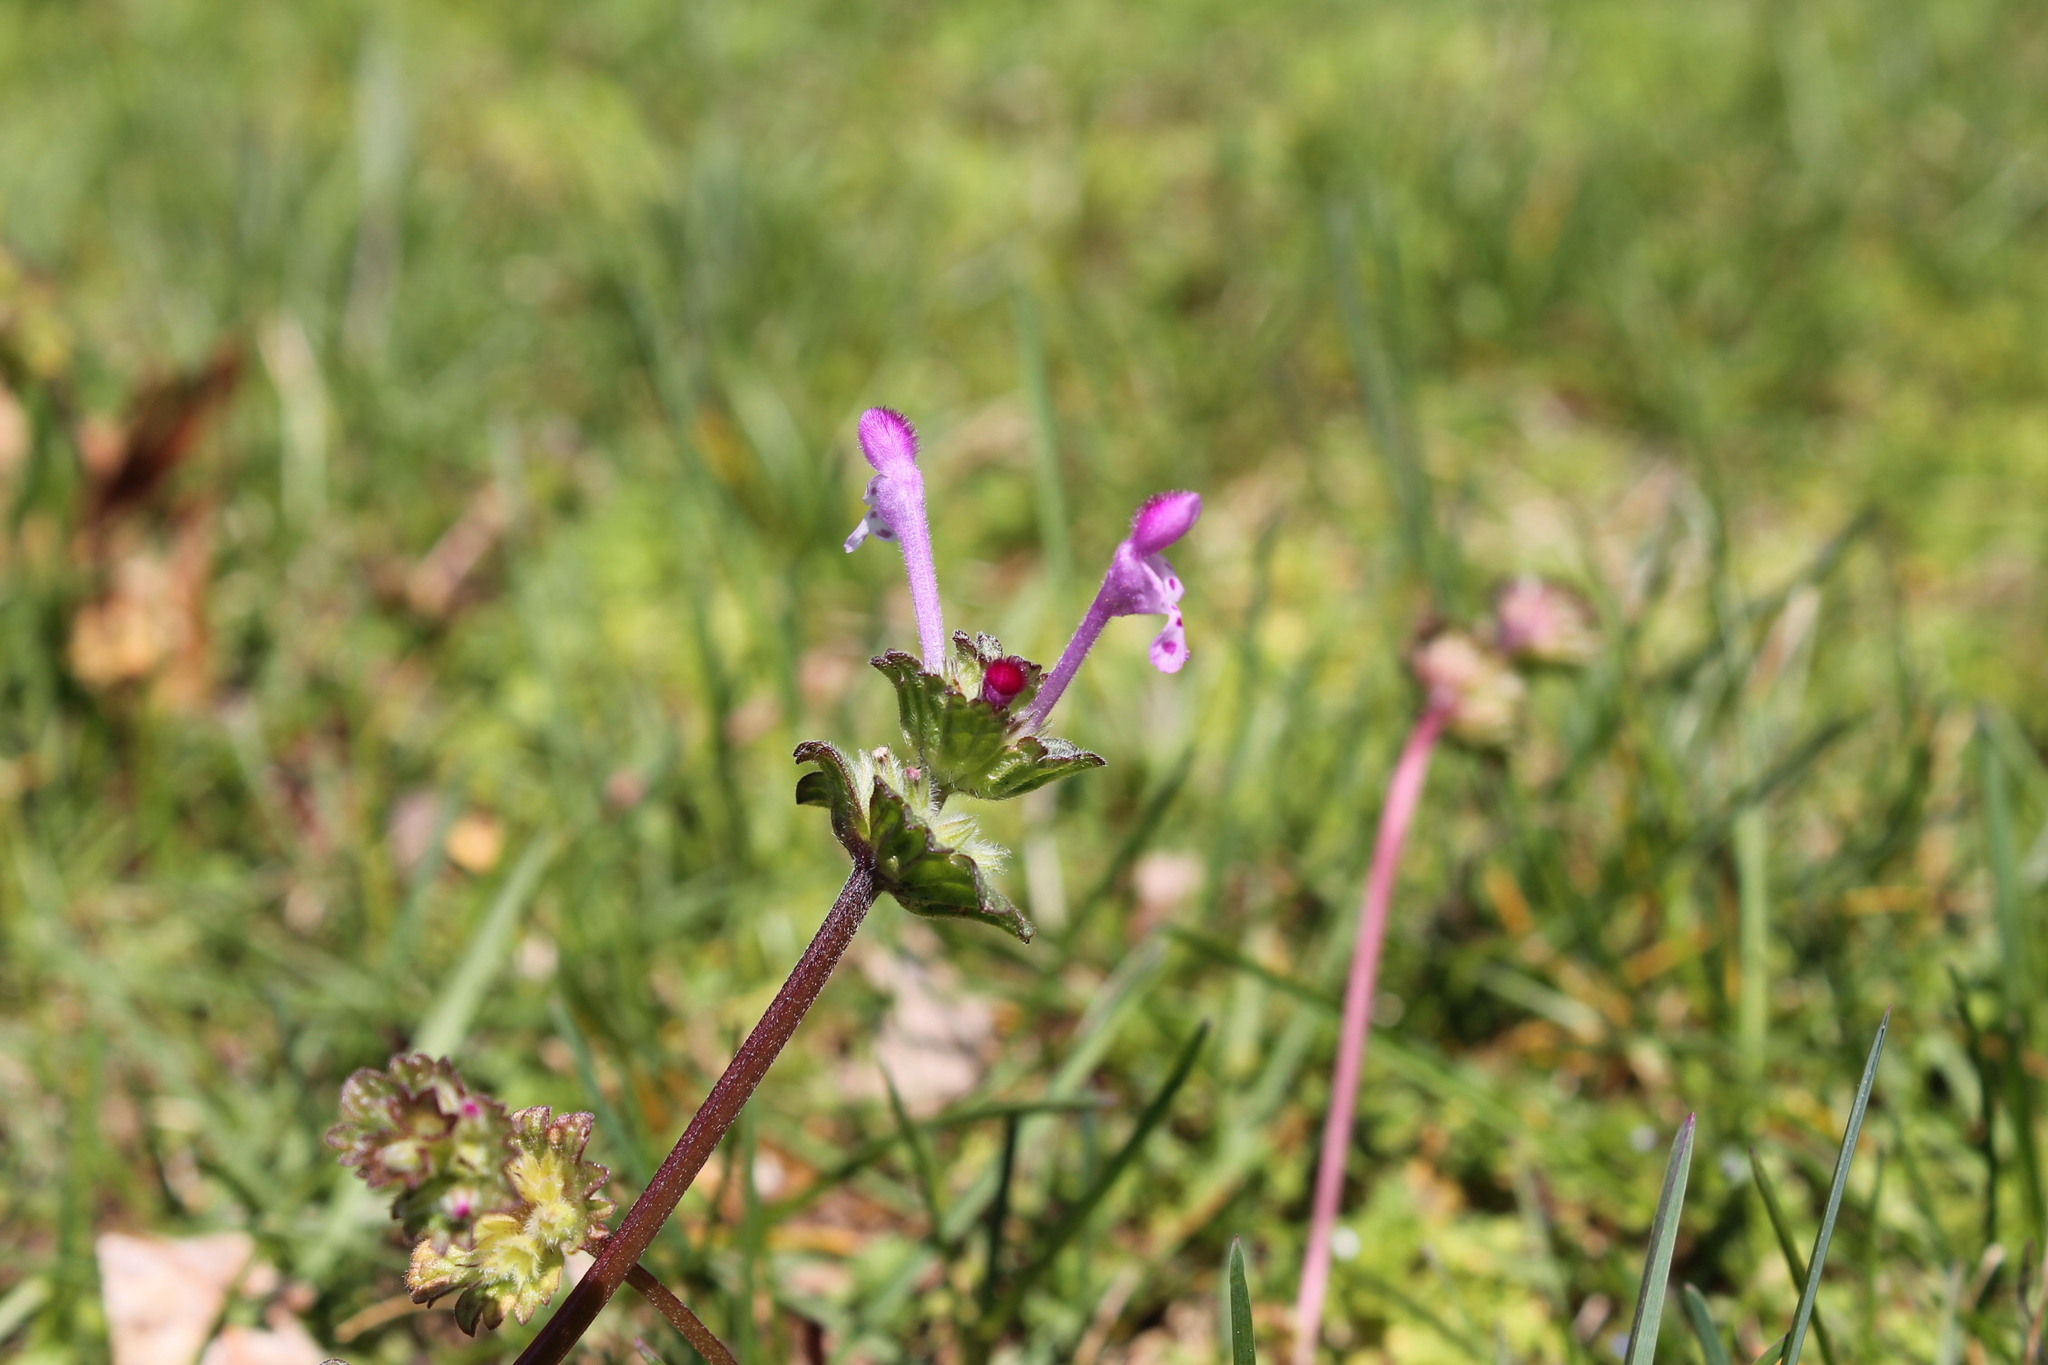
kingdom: Plantae
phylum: Tracheophyta
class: Magnoliopsida
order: Lamiales
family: Lamiaceae
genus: Lamium
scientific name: Lamium amplexicaule
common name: Henbit dead-nettle
